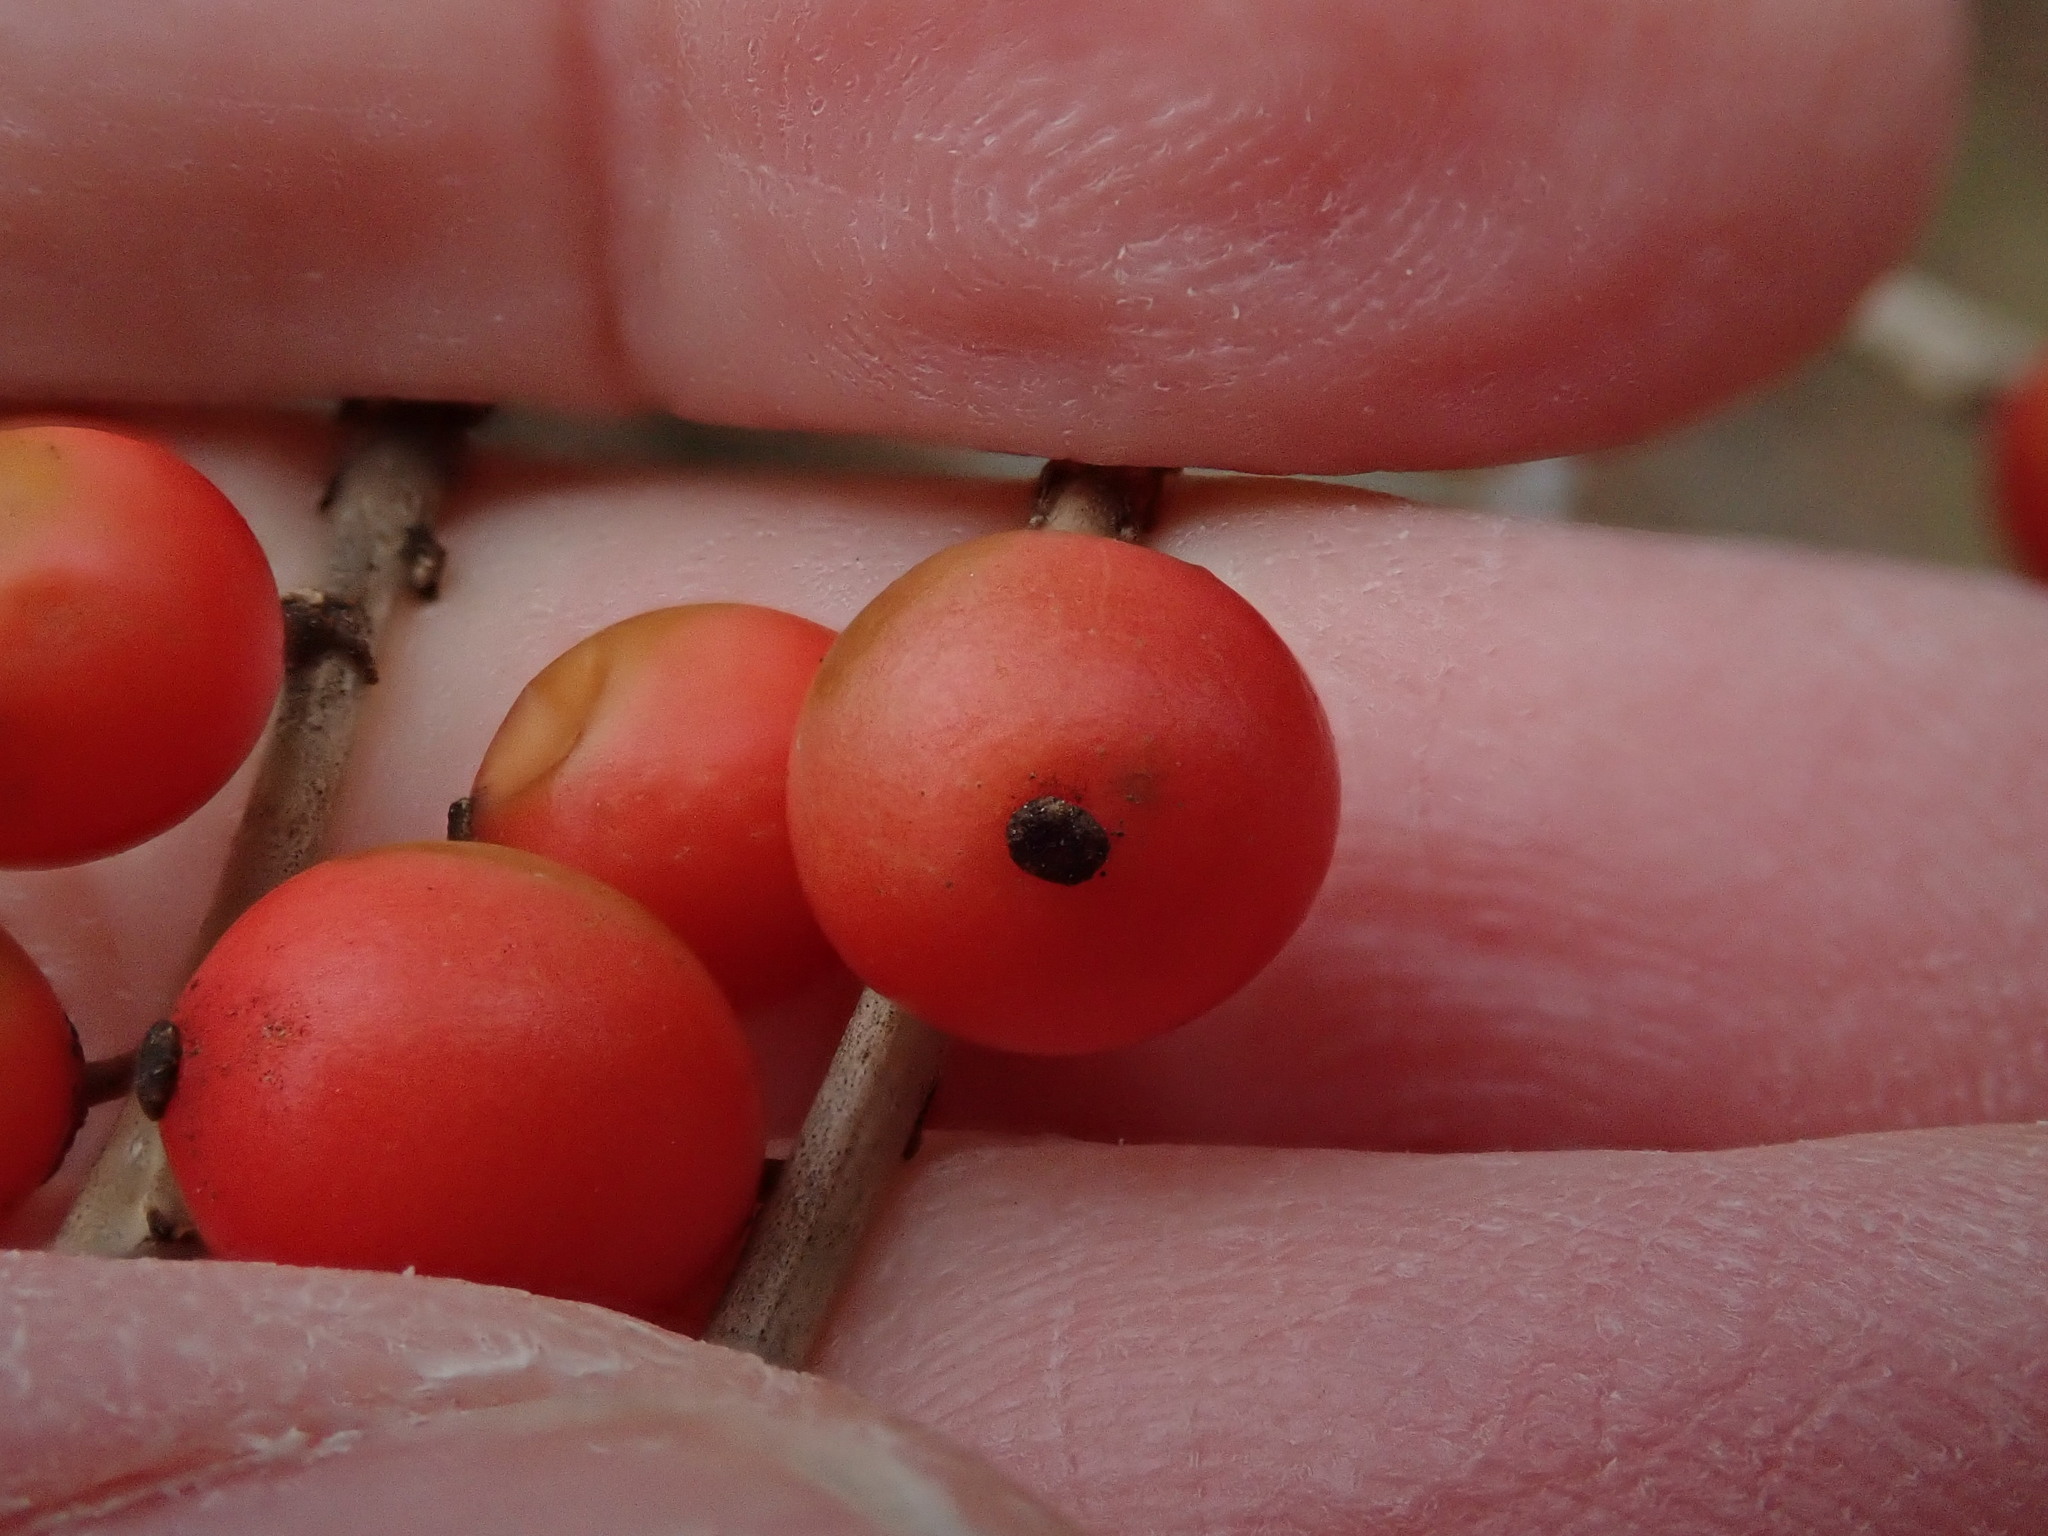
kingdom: Plantae
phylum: Tracheophyta
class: Magnoliopsida
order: Aquifoliales
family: Aquifoliaceae
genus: Ilex
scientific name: Ilex laevigata
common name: Smooth winterberry
